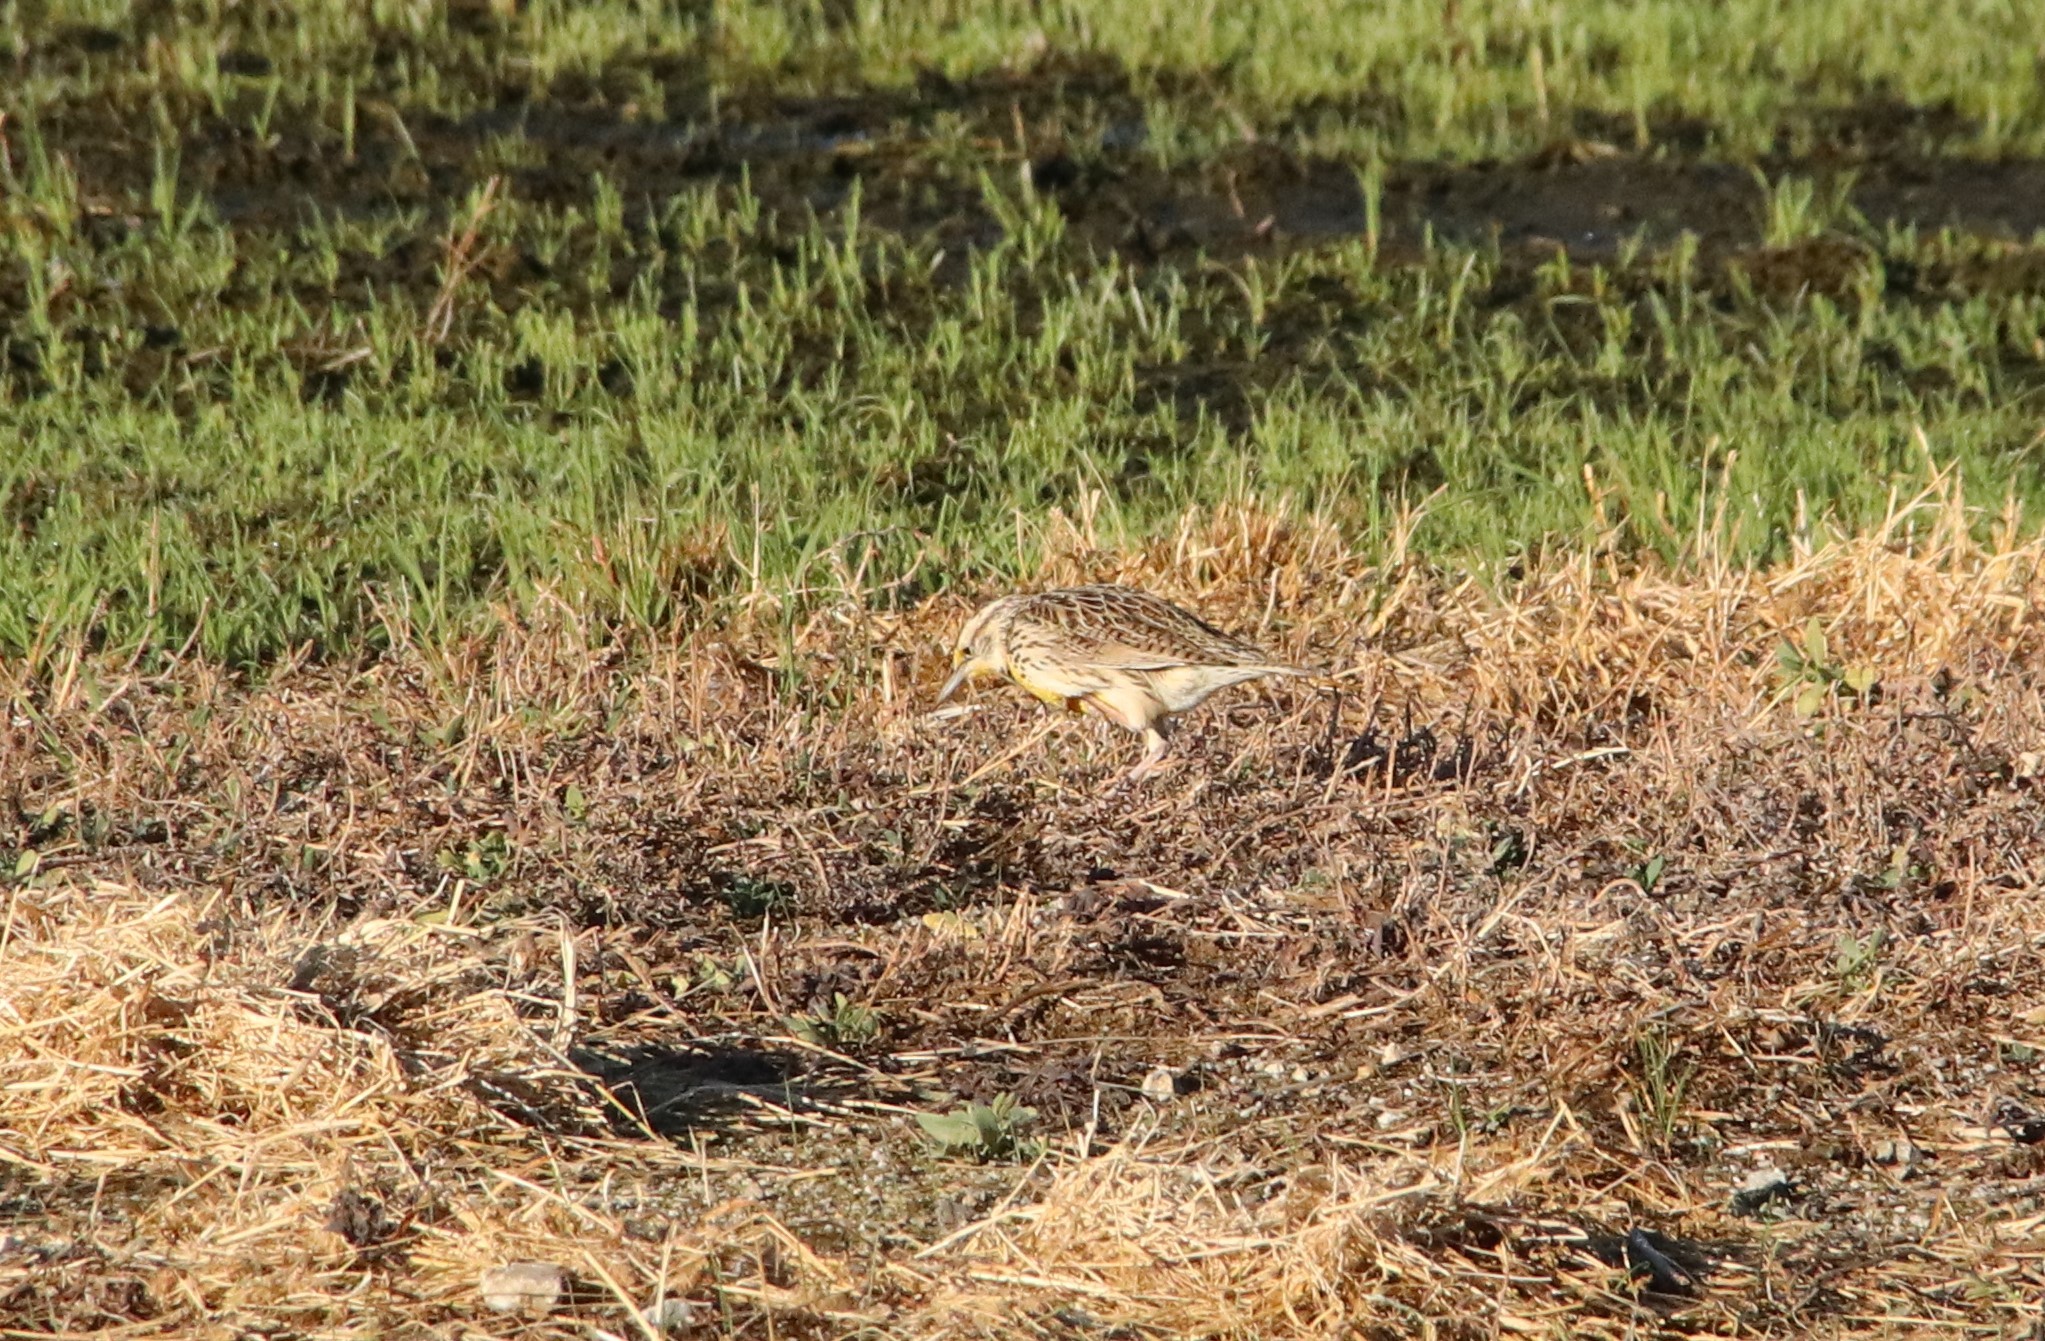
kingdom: Animalia
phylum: Chordata
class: Aves
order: Passeriformes
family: Icteridae
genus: Sturnella
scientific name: Sturnella neglecta
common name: Western meadowlark
